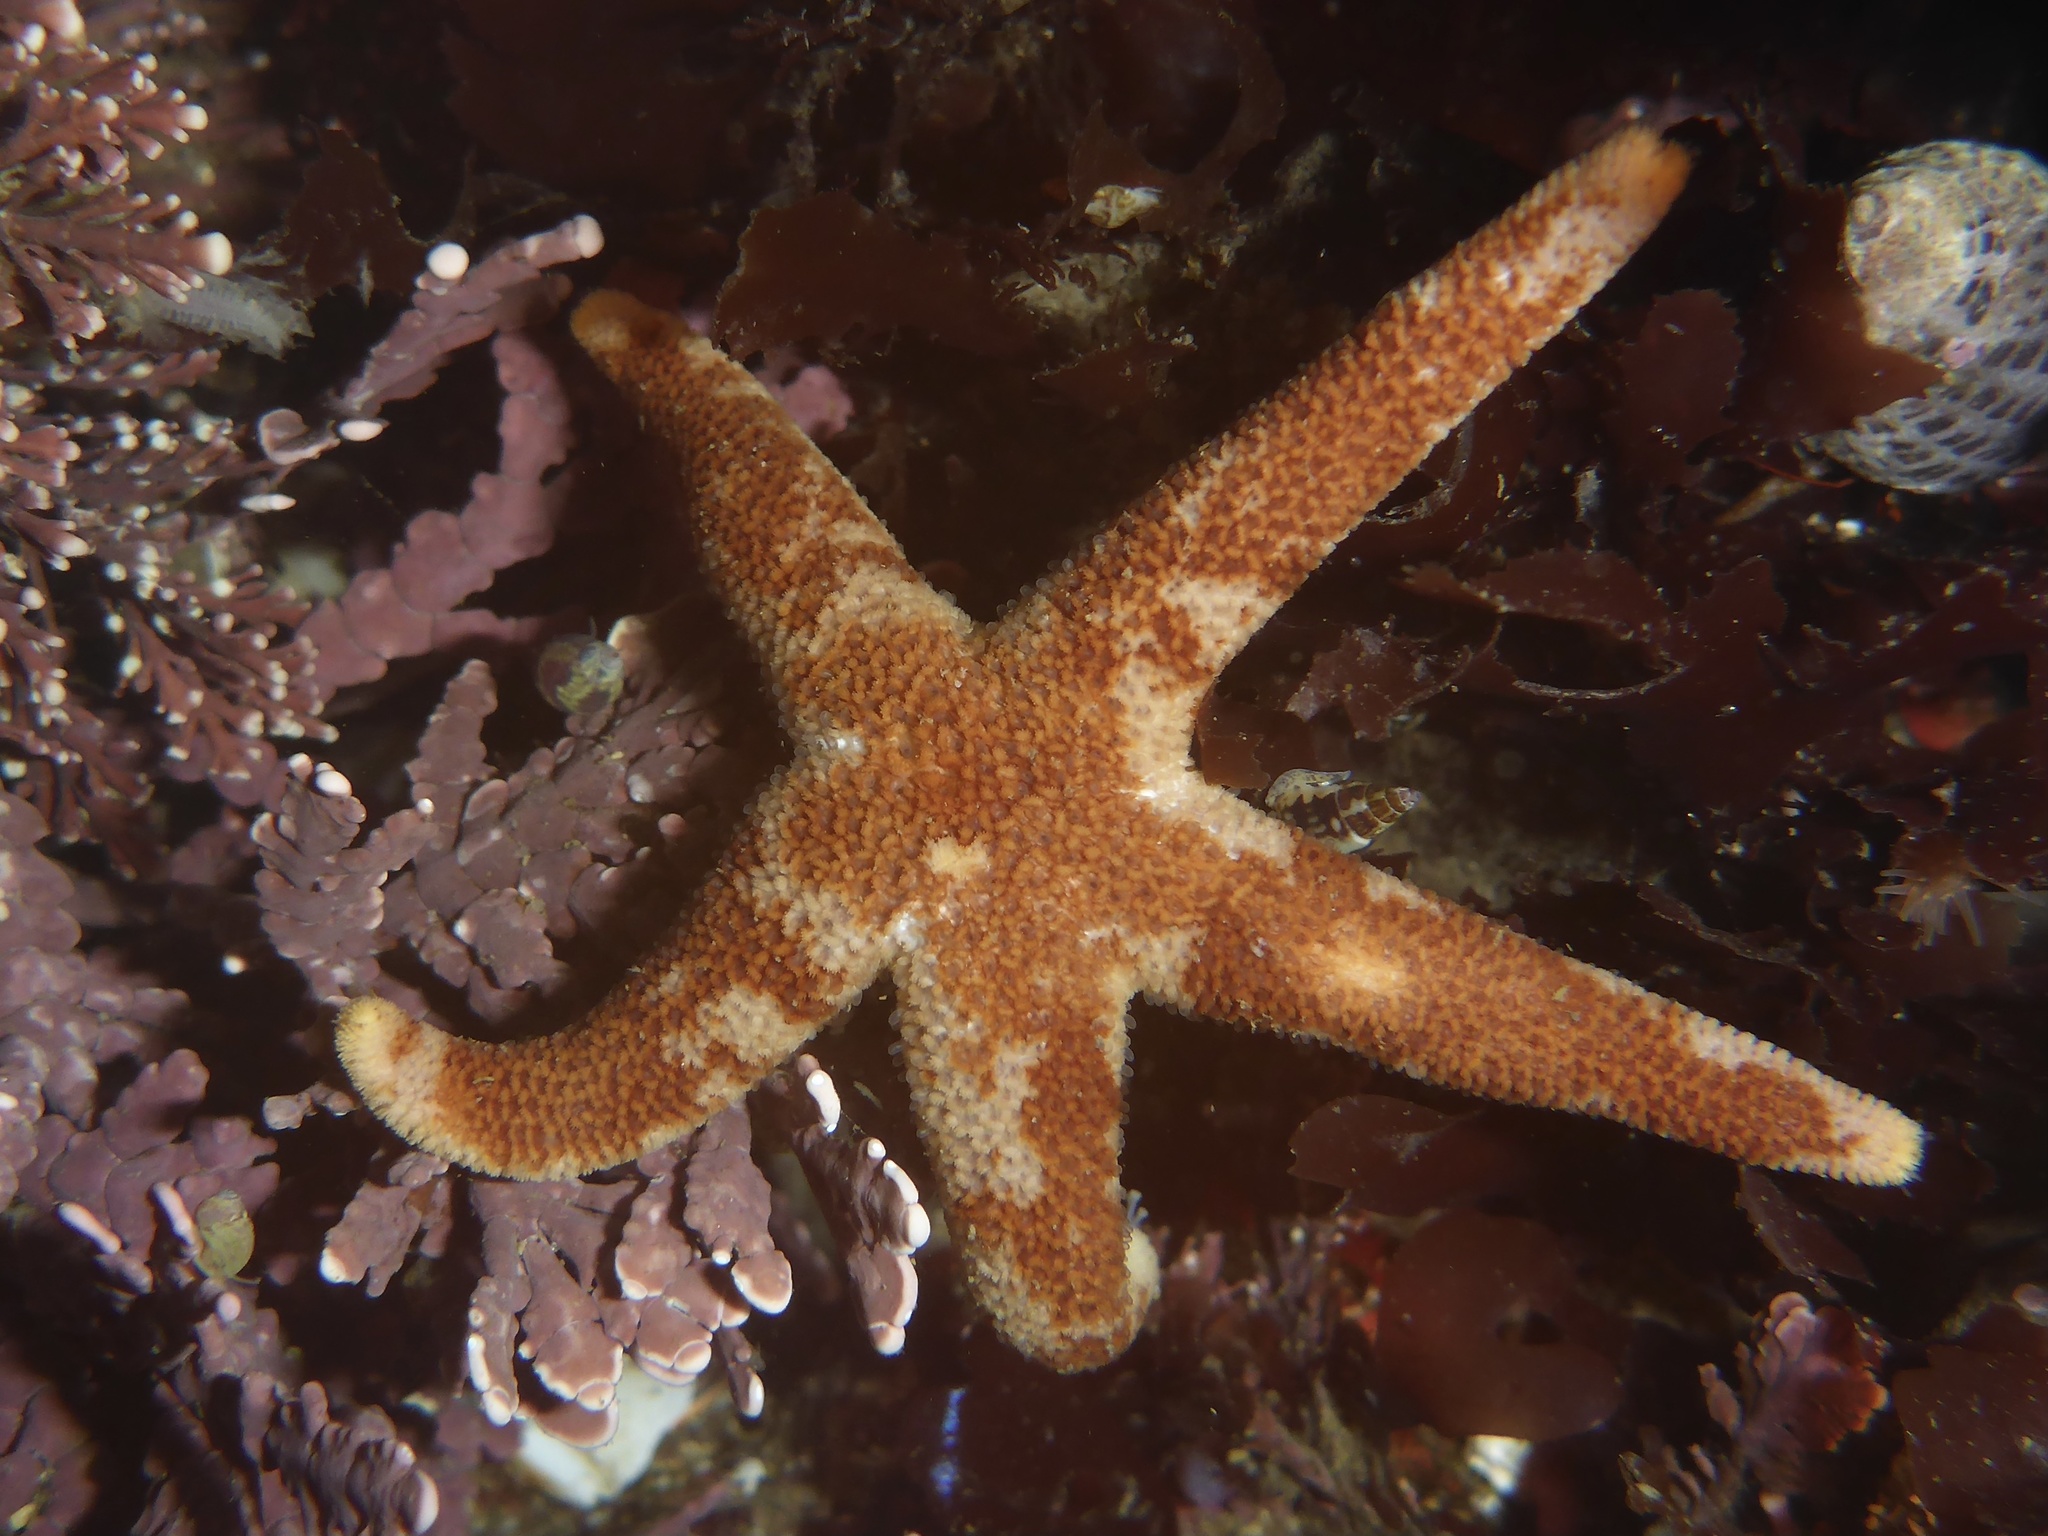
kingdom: Animalia
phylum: Echinodermata
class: Asteroidea
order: Spinulosida
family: Echinasteridae
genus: Henricia
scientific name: Henricia pumila
